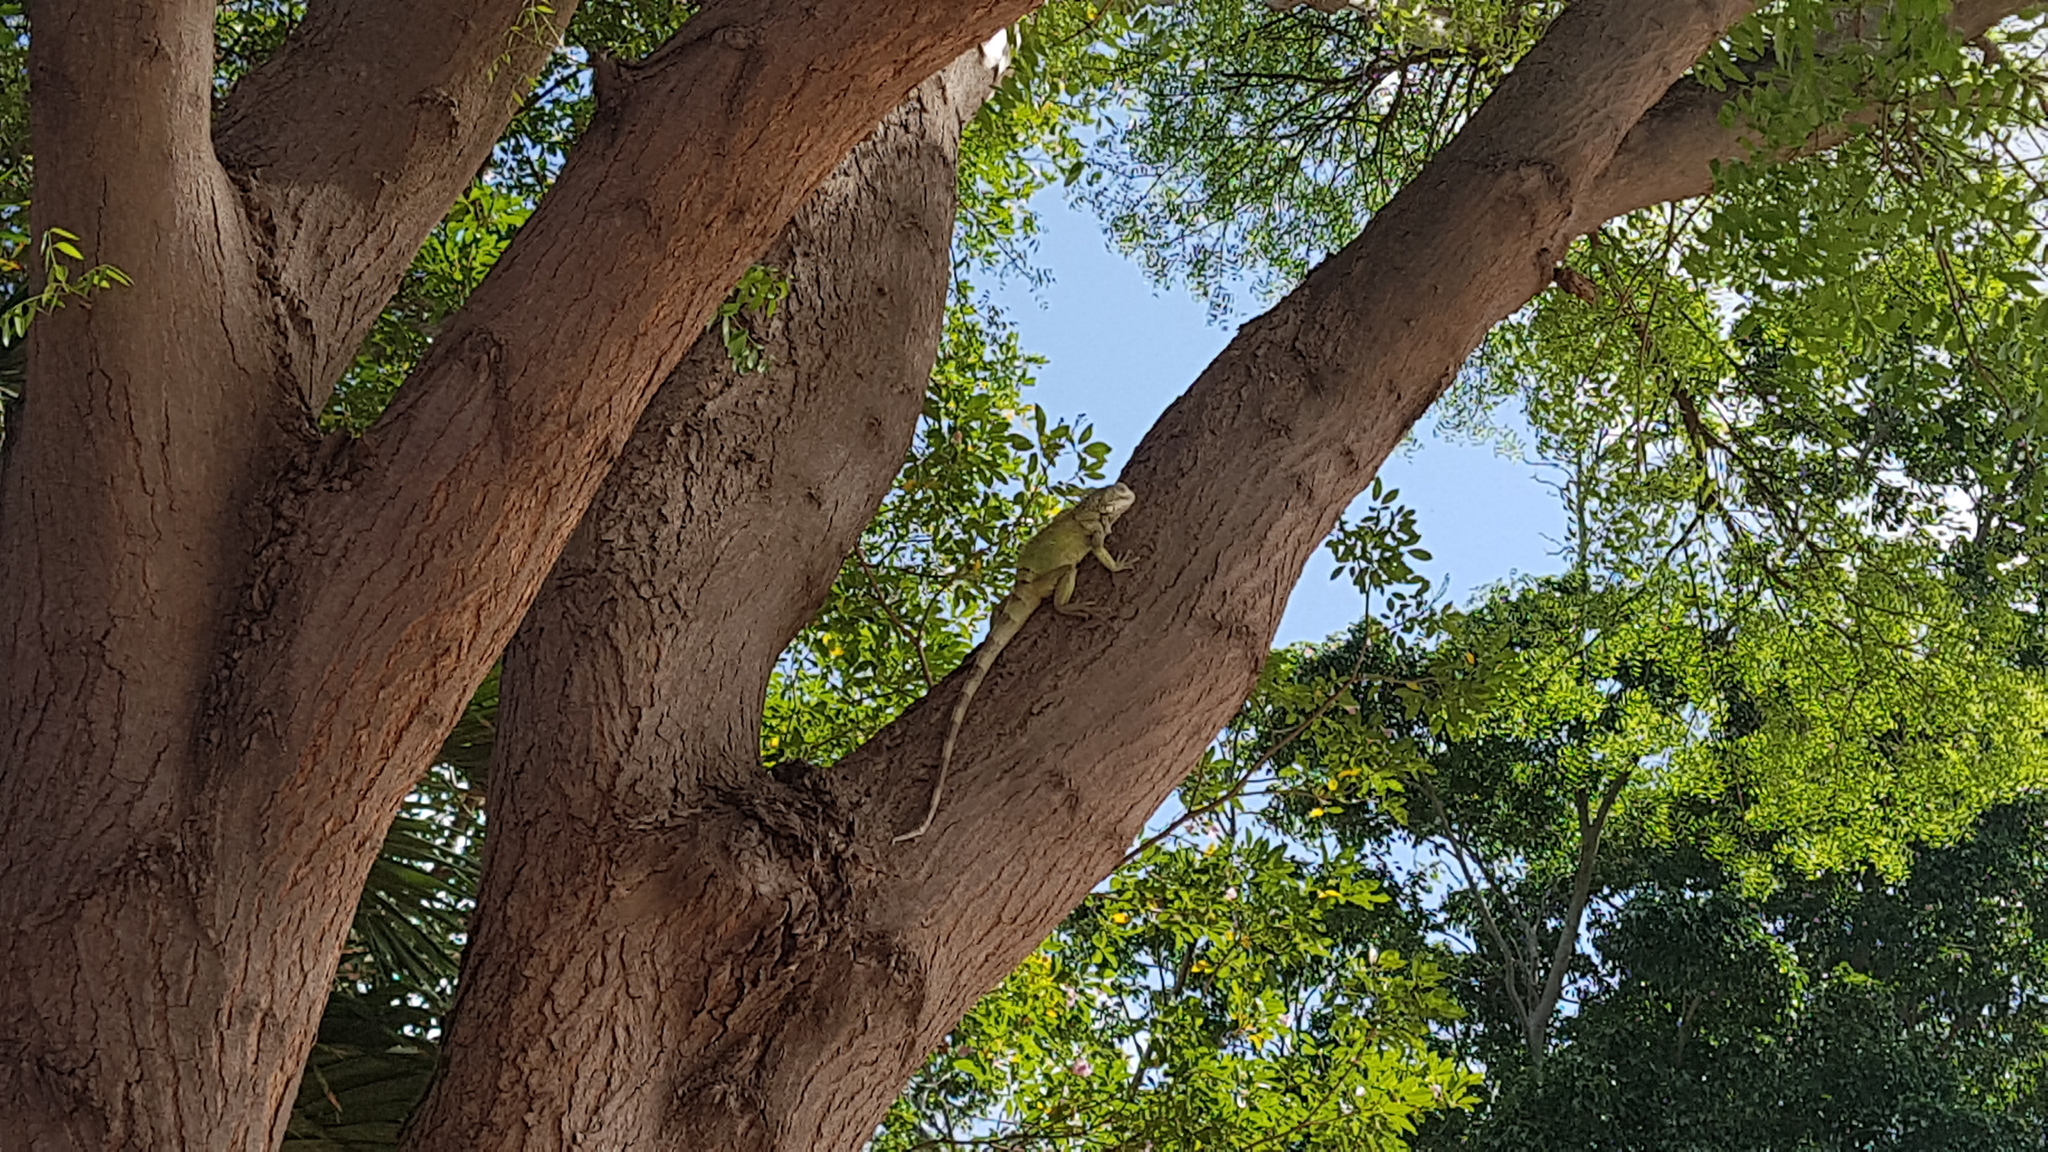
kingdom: Animalia
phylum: Chordata
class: Squamata
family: Iguanidae
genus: Iguana
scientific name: Iguana iguana
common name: Green iguana
